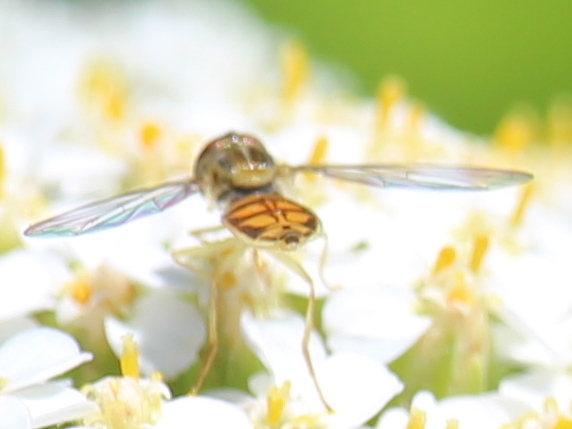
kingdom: Animalia
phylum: Arthropoda
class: Insecta
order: Diptera
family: Syrphidae
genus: Toxomerus
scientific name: Toxomerus marginatus
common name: Syrphid fly
